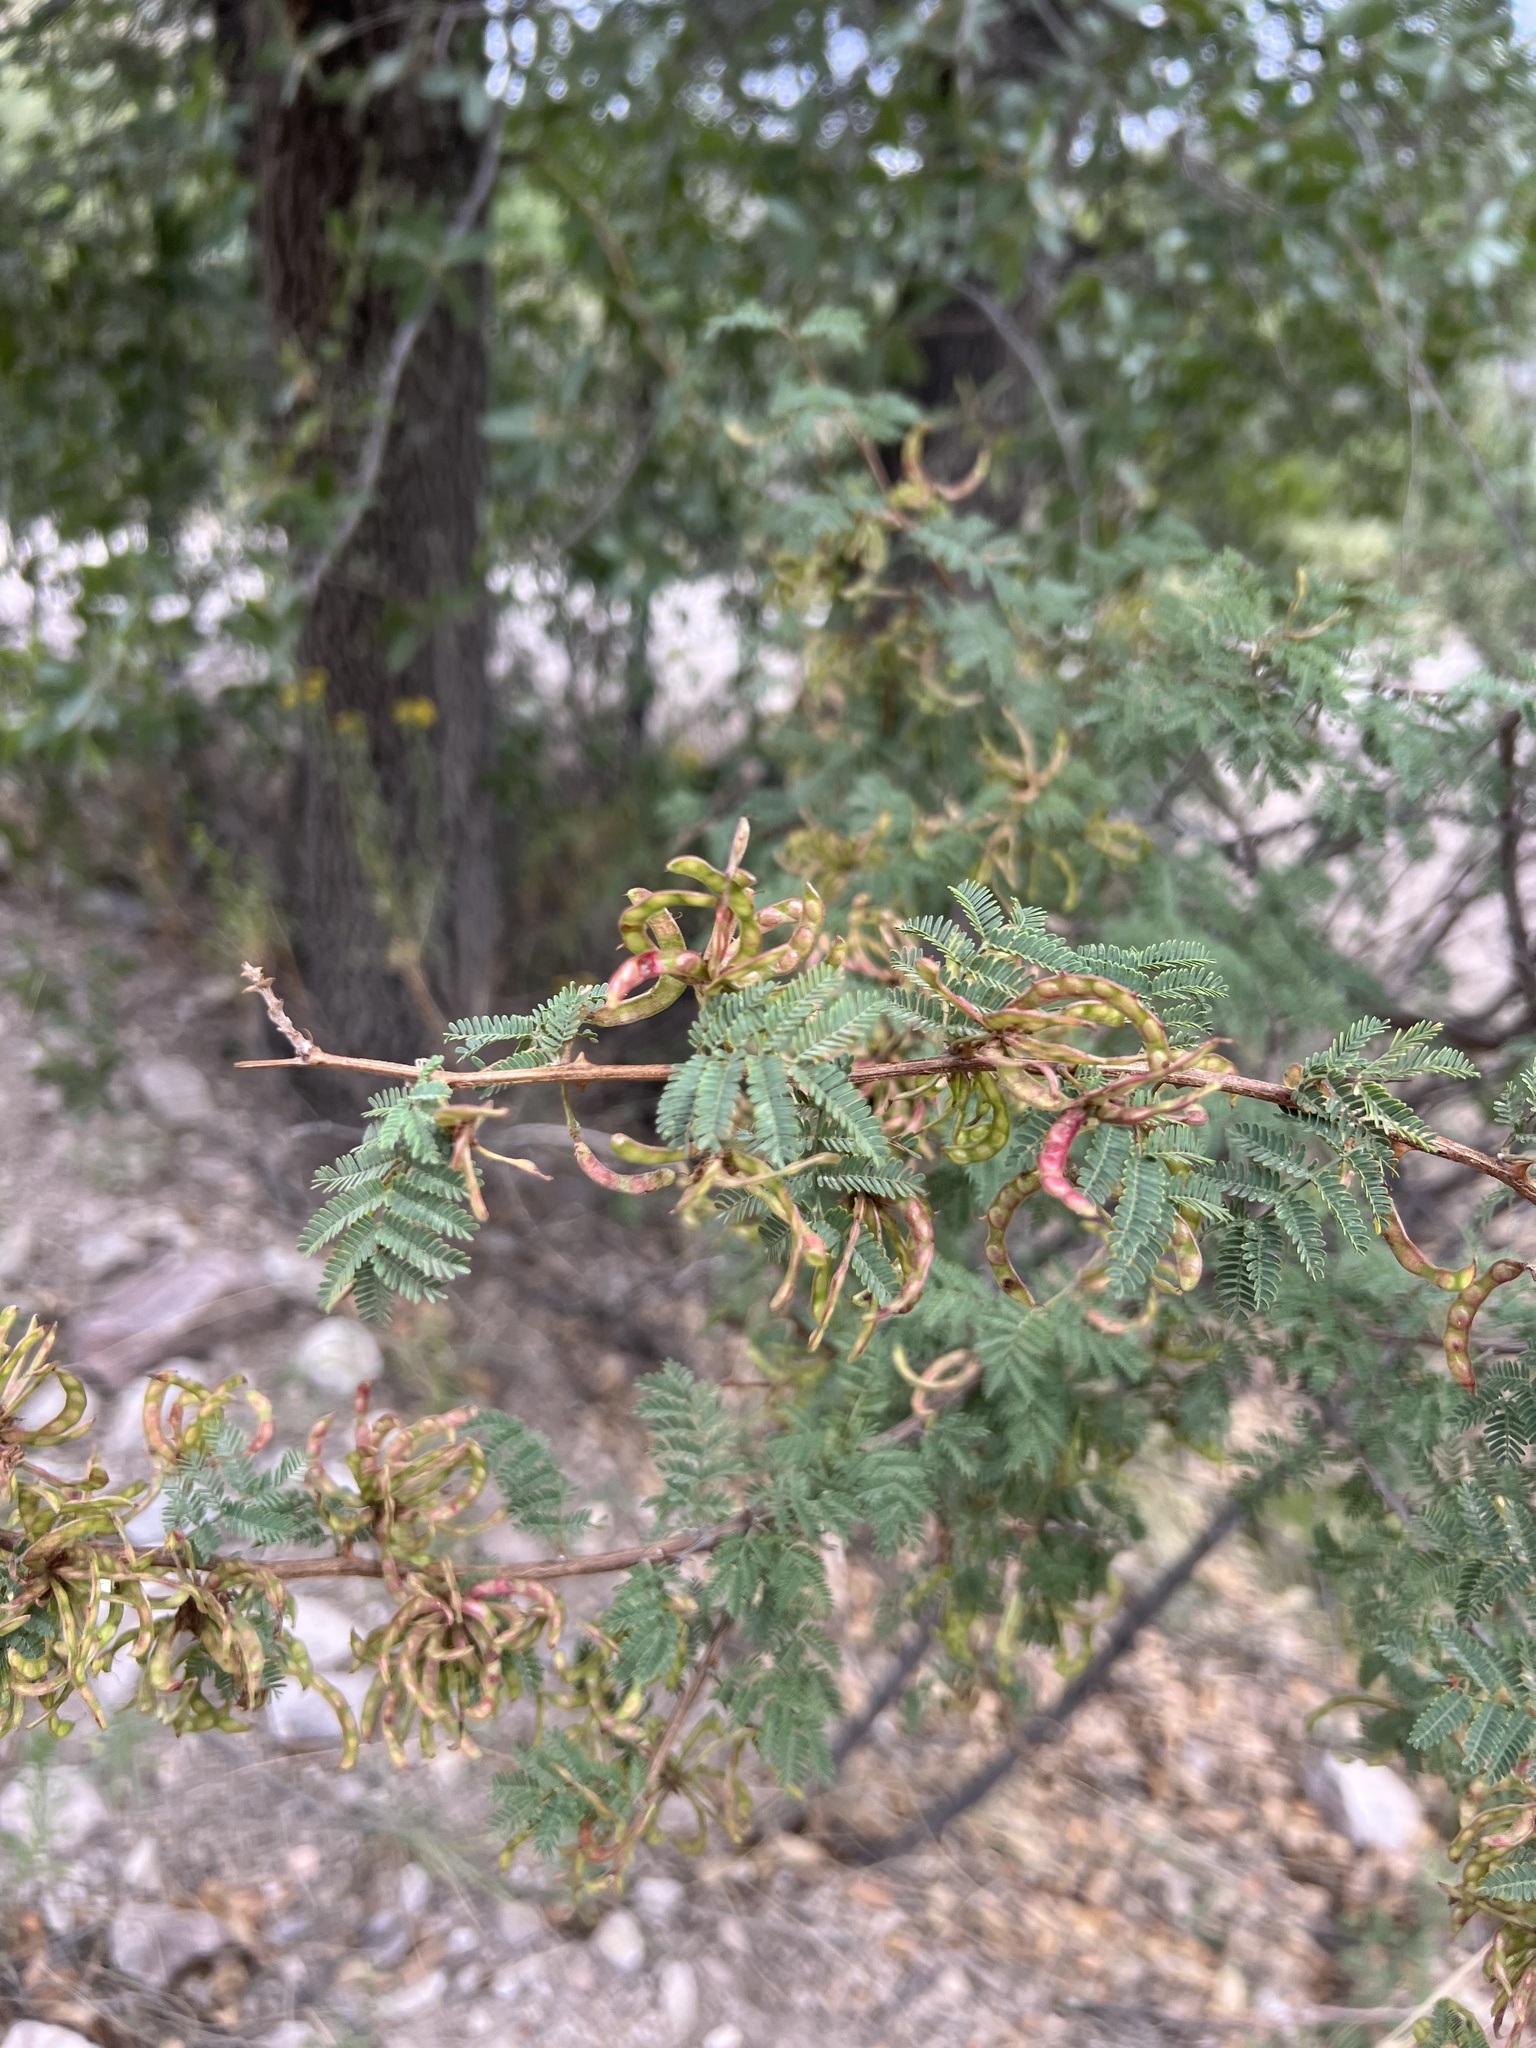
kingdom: Plantae
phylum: Tracheophyta
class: Magnoliopsida
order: Fabales
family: Fabaceae
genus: Mimosa
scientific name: Mimosa aculeaticarpa
